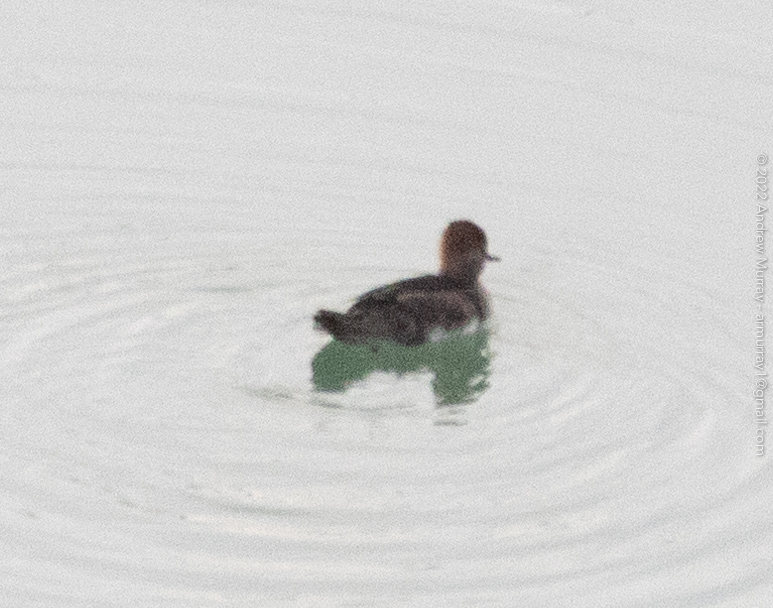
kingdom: Animalia
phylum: Chordata
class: Aves
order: Anseriformes
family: Anatidae
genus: Lophodytes
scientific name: Lophodytes cucullatus
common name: Hooded merganser
